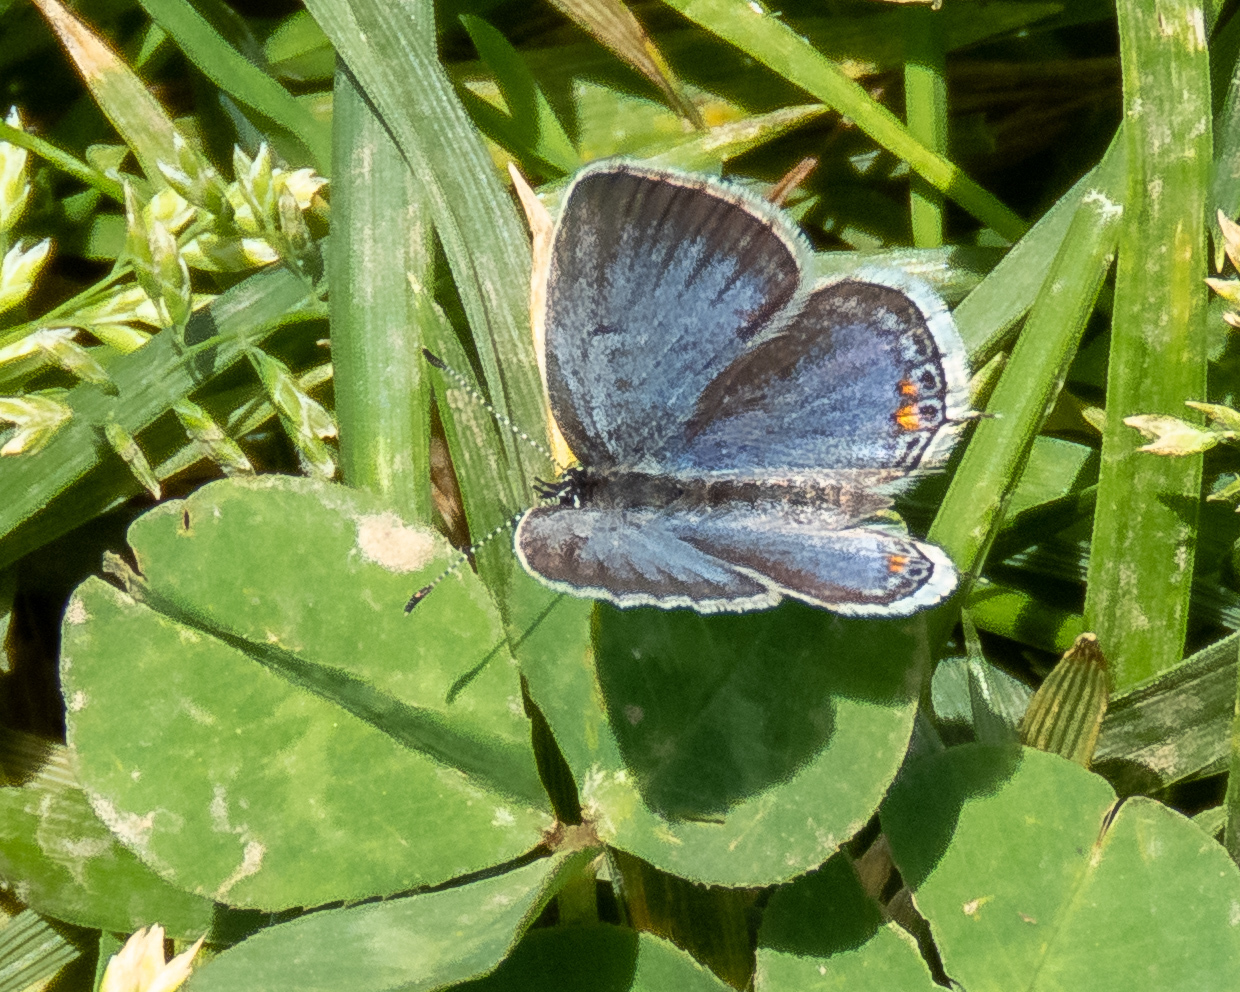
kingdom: Animalia
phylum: Arthropoda
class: Insecta
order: Lepidoptera
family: Lycaenidae
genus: Elkalyce
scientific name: Elkalyce comyntas
